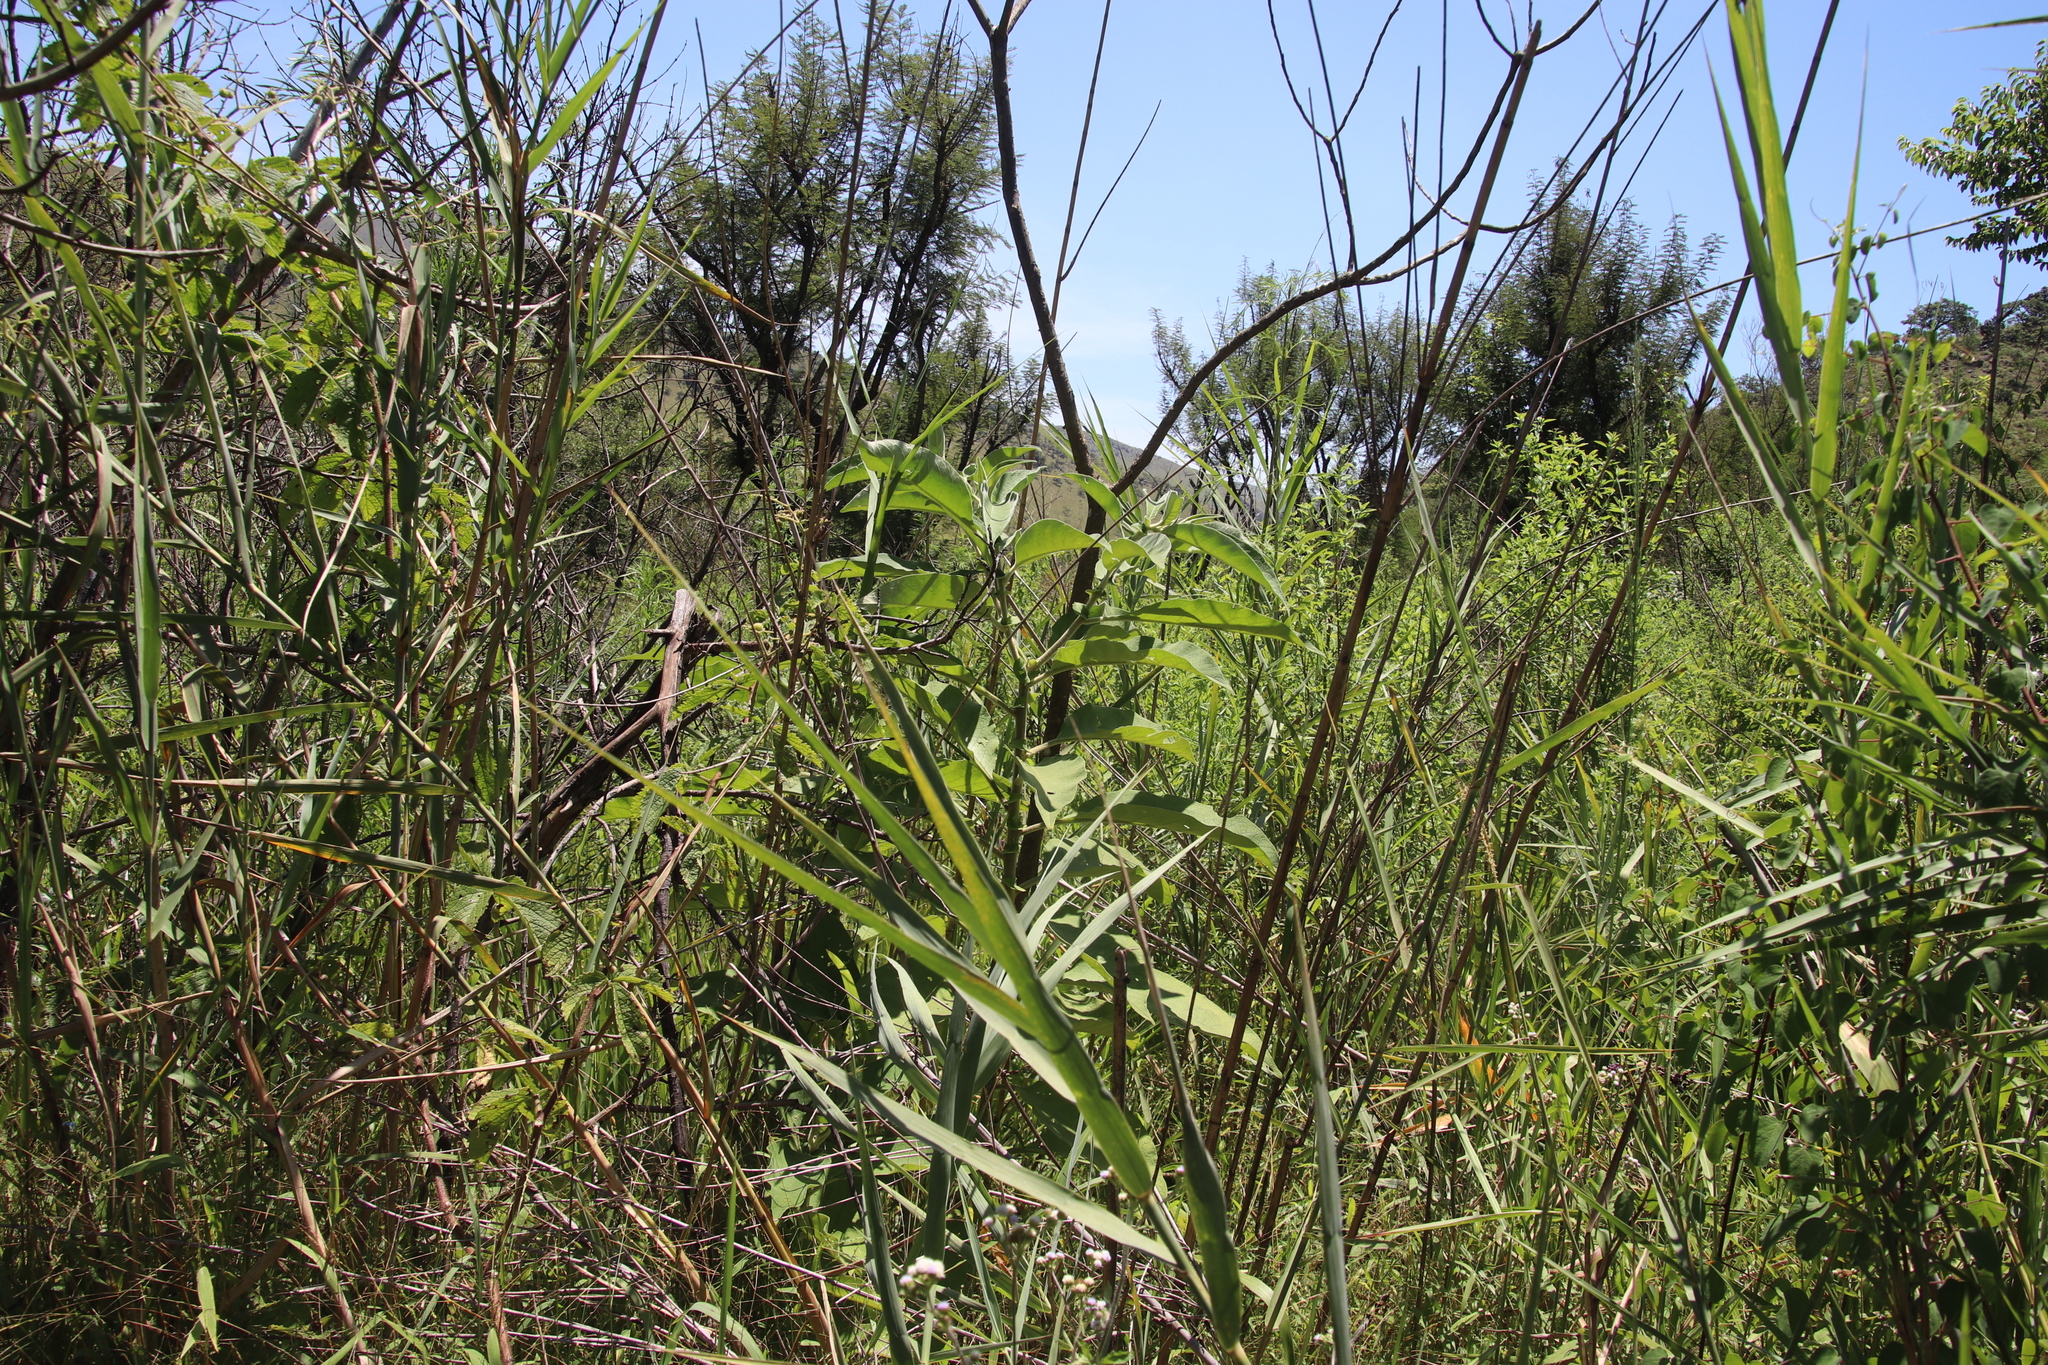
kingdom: Plantae
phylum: Tracheophyta
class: Magnoliopsida
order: Solanales
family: Solanaceae
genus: Solanum
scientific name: Solanum mauritianum
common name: Earleaf nightshade
